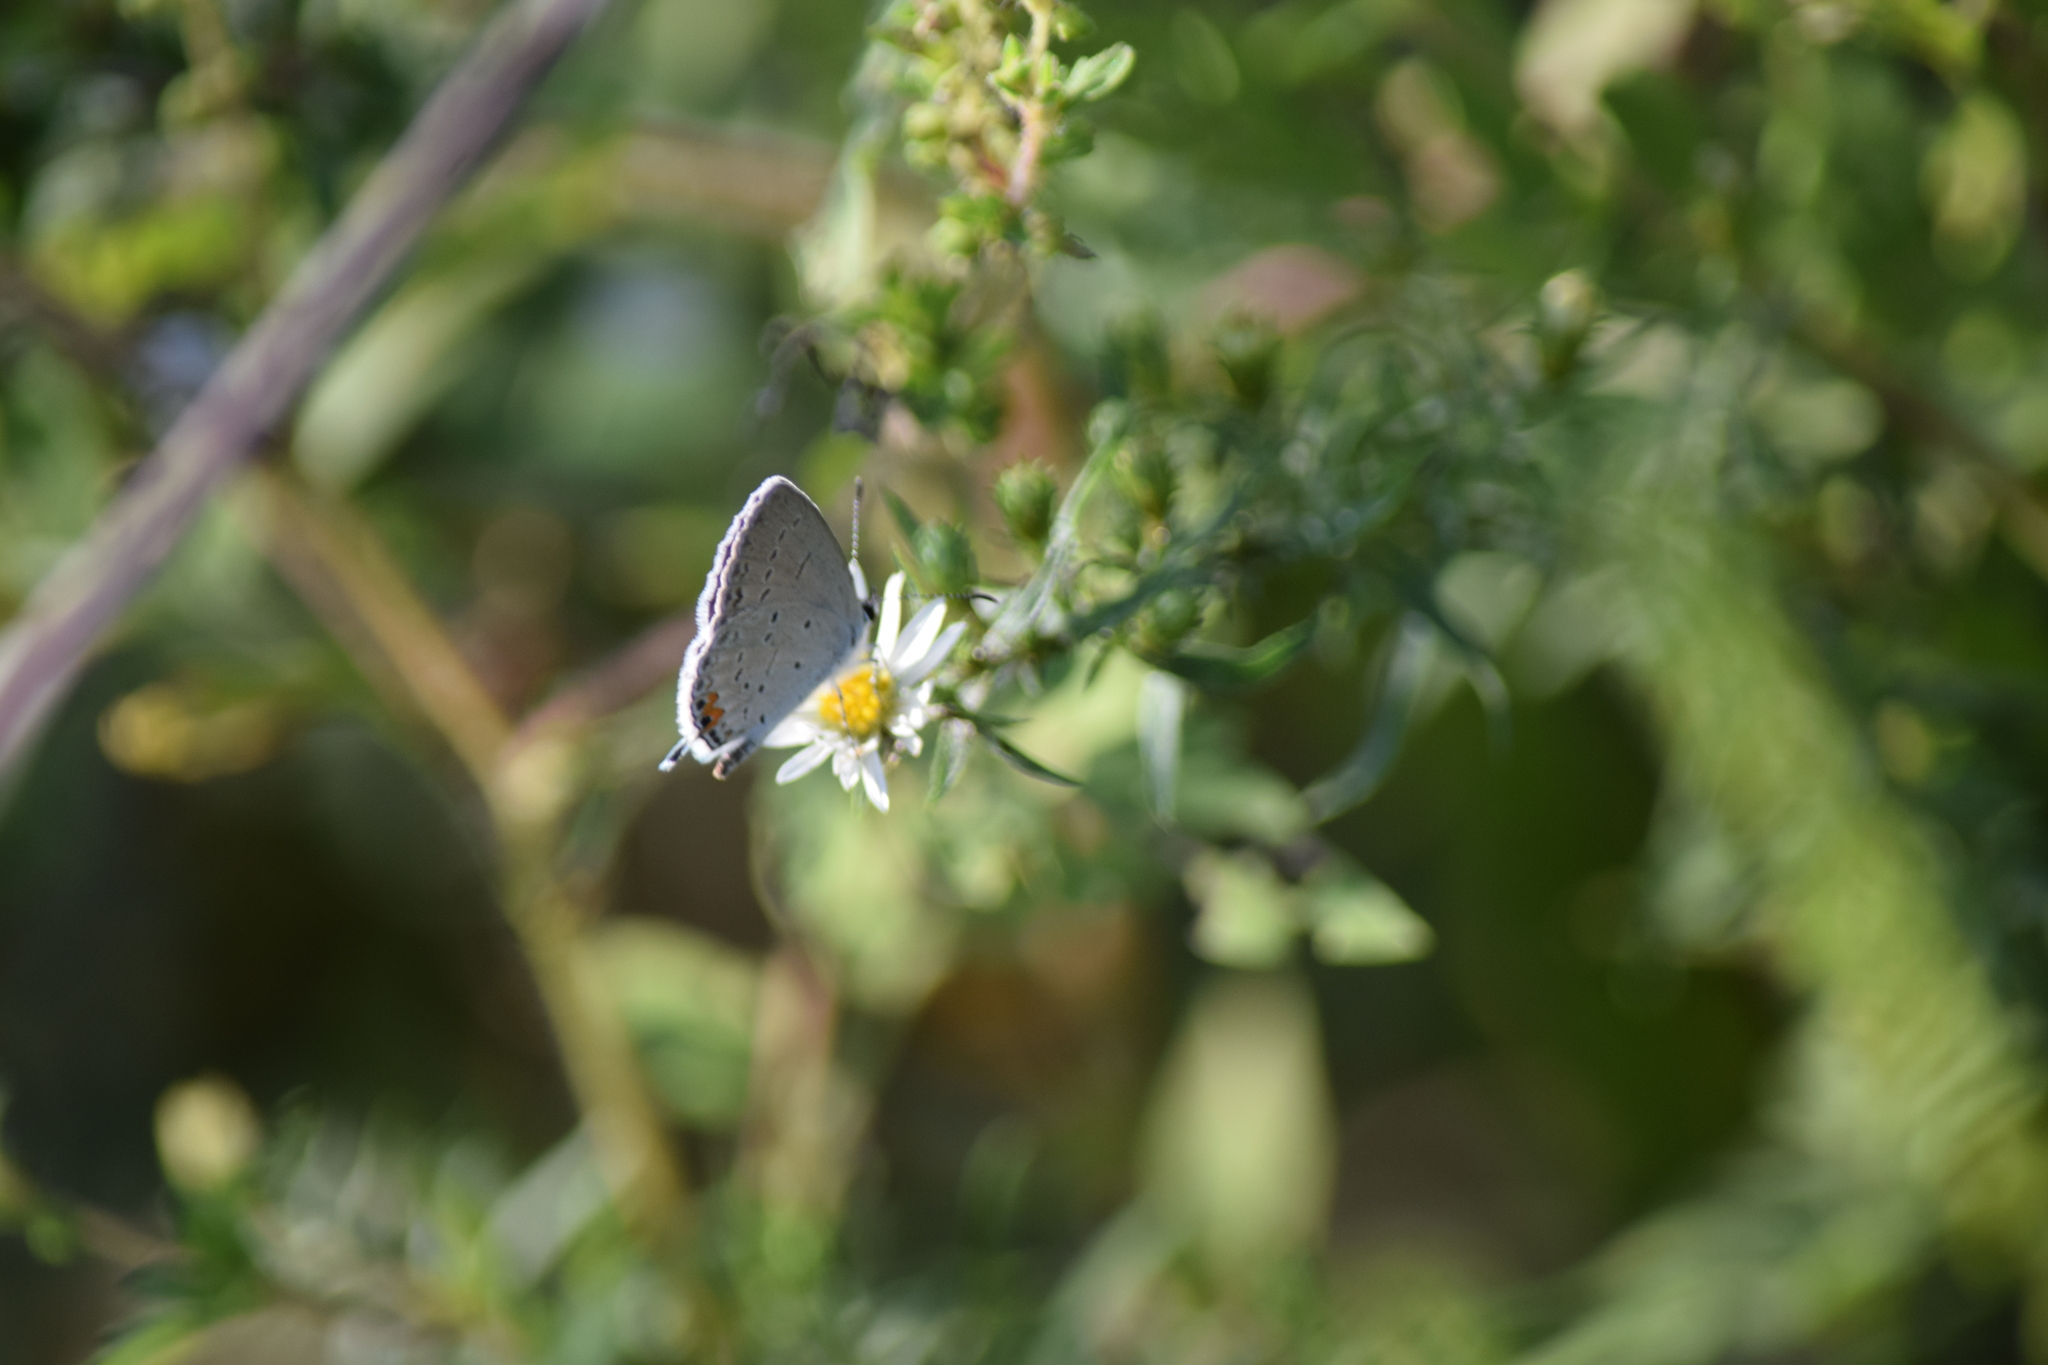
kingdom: Animalia
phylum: Arthropoda
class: Insecta
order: Lepidoptera
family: Lycaenidae
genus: Elkalyce
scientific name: Elkalyce comyntas
